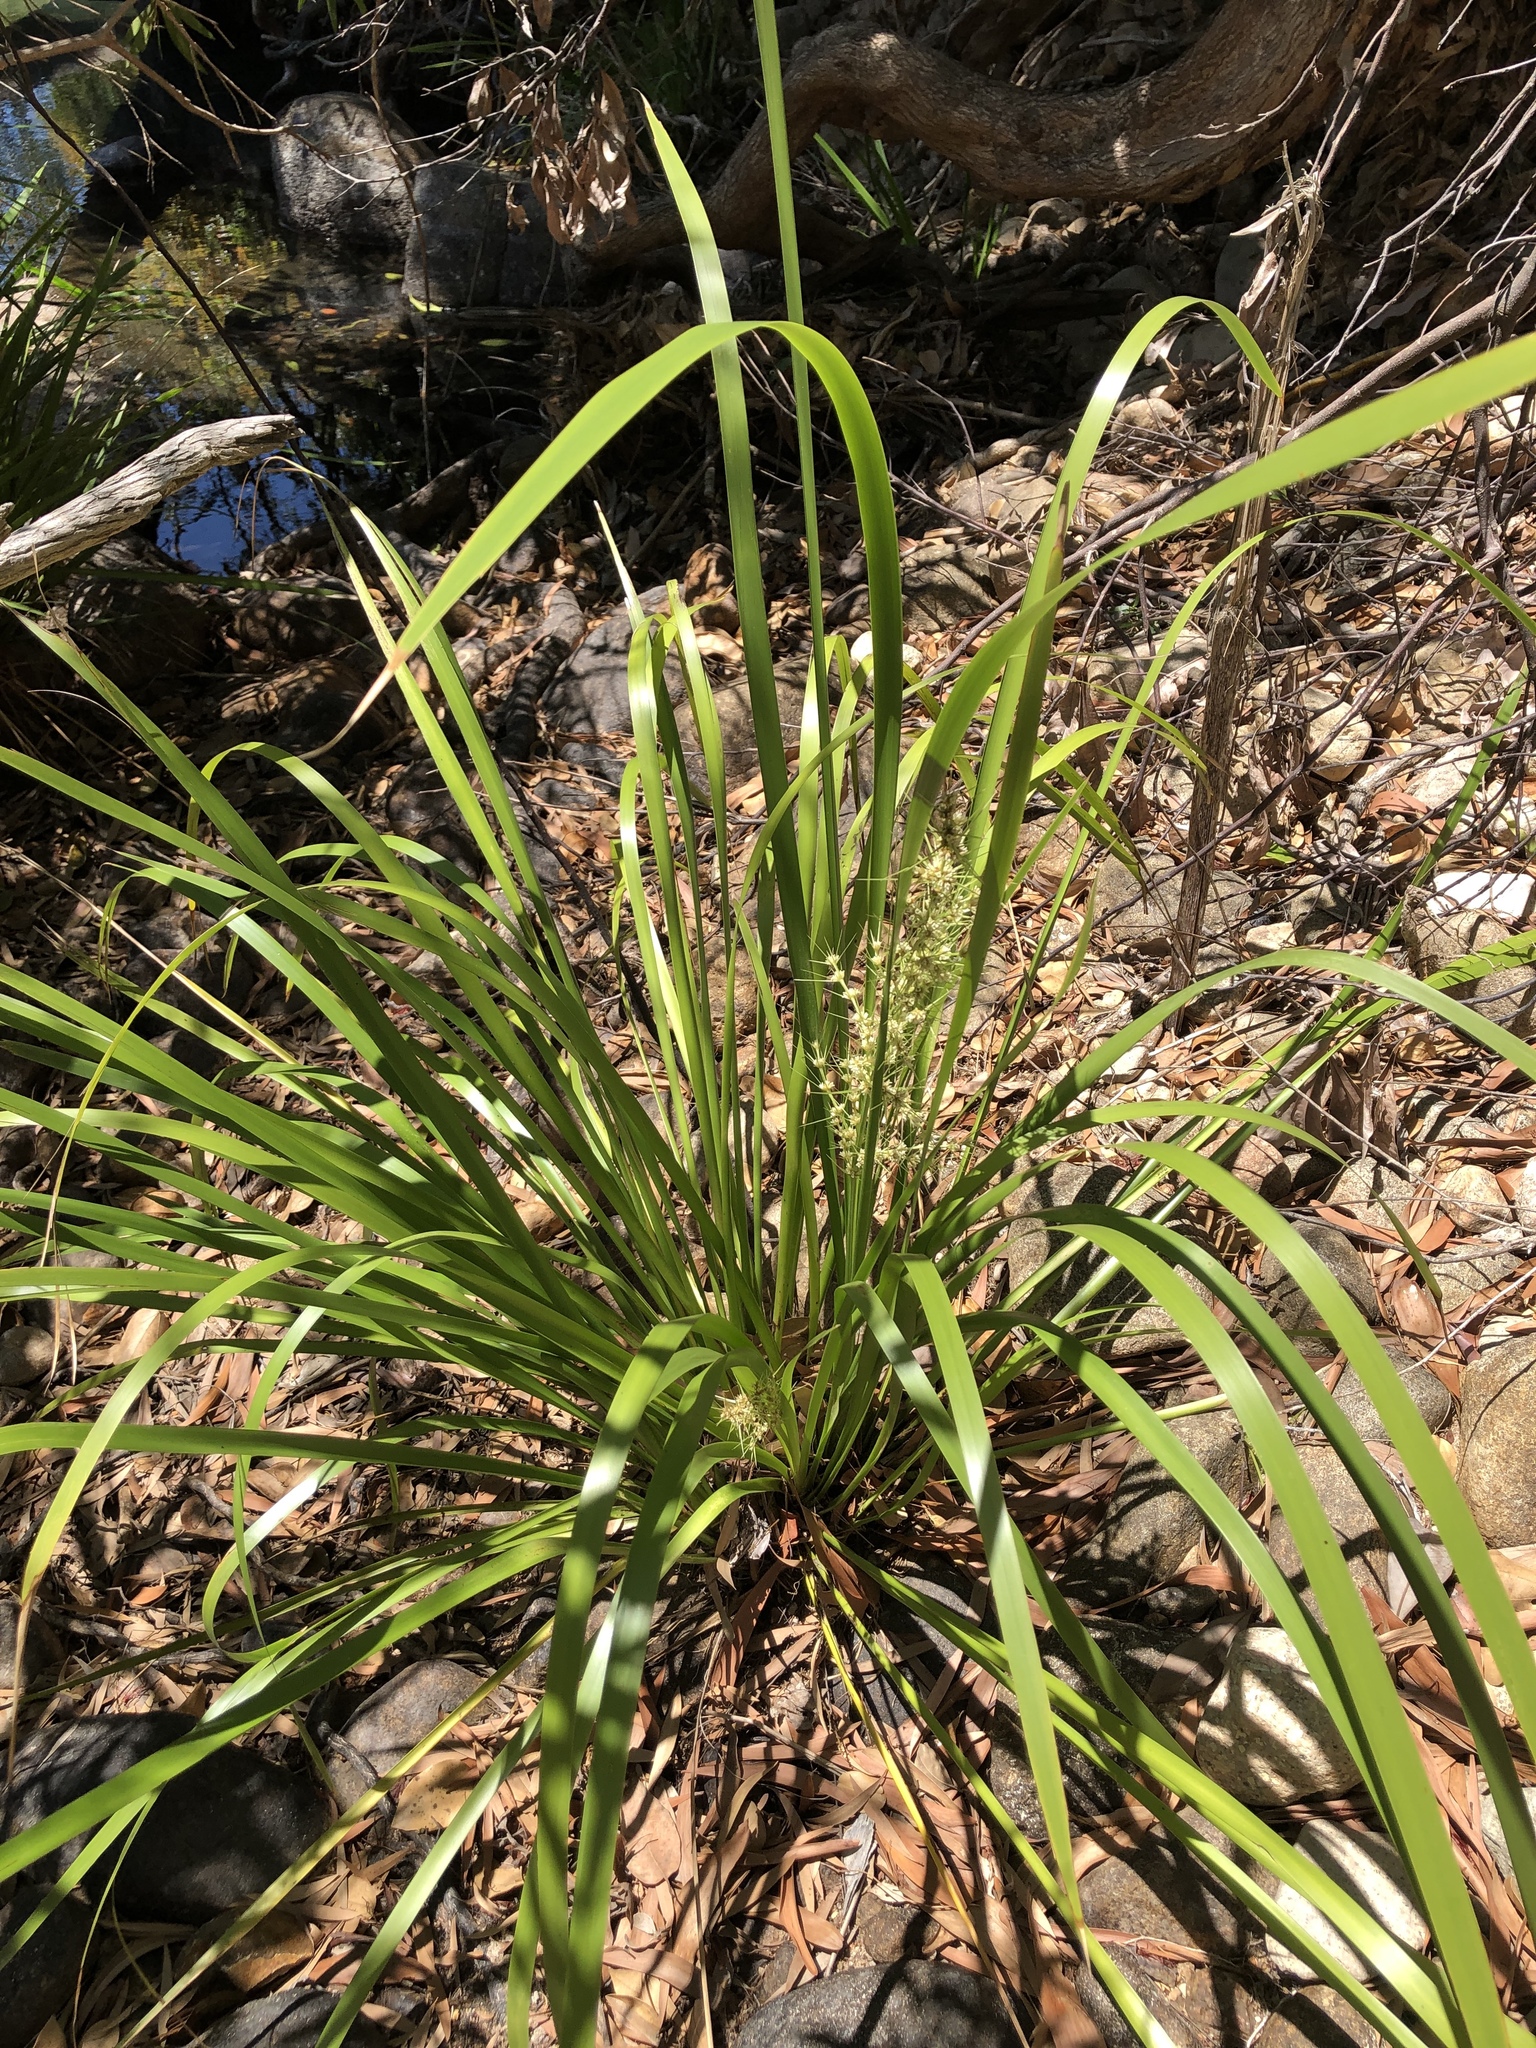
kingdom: Plantae
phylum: Tracheophyta
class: Liliopsida
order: Asparagales
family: Asparagaceae
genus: Lomandra
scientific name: Lomandra hystrix
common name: Creek mat-rush
